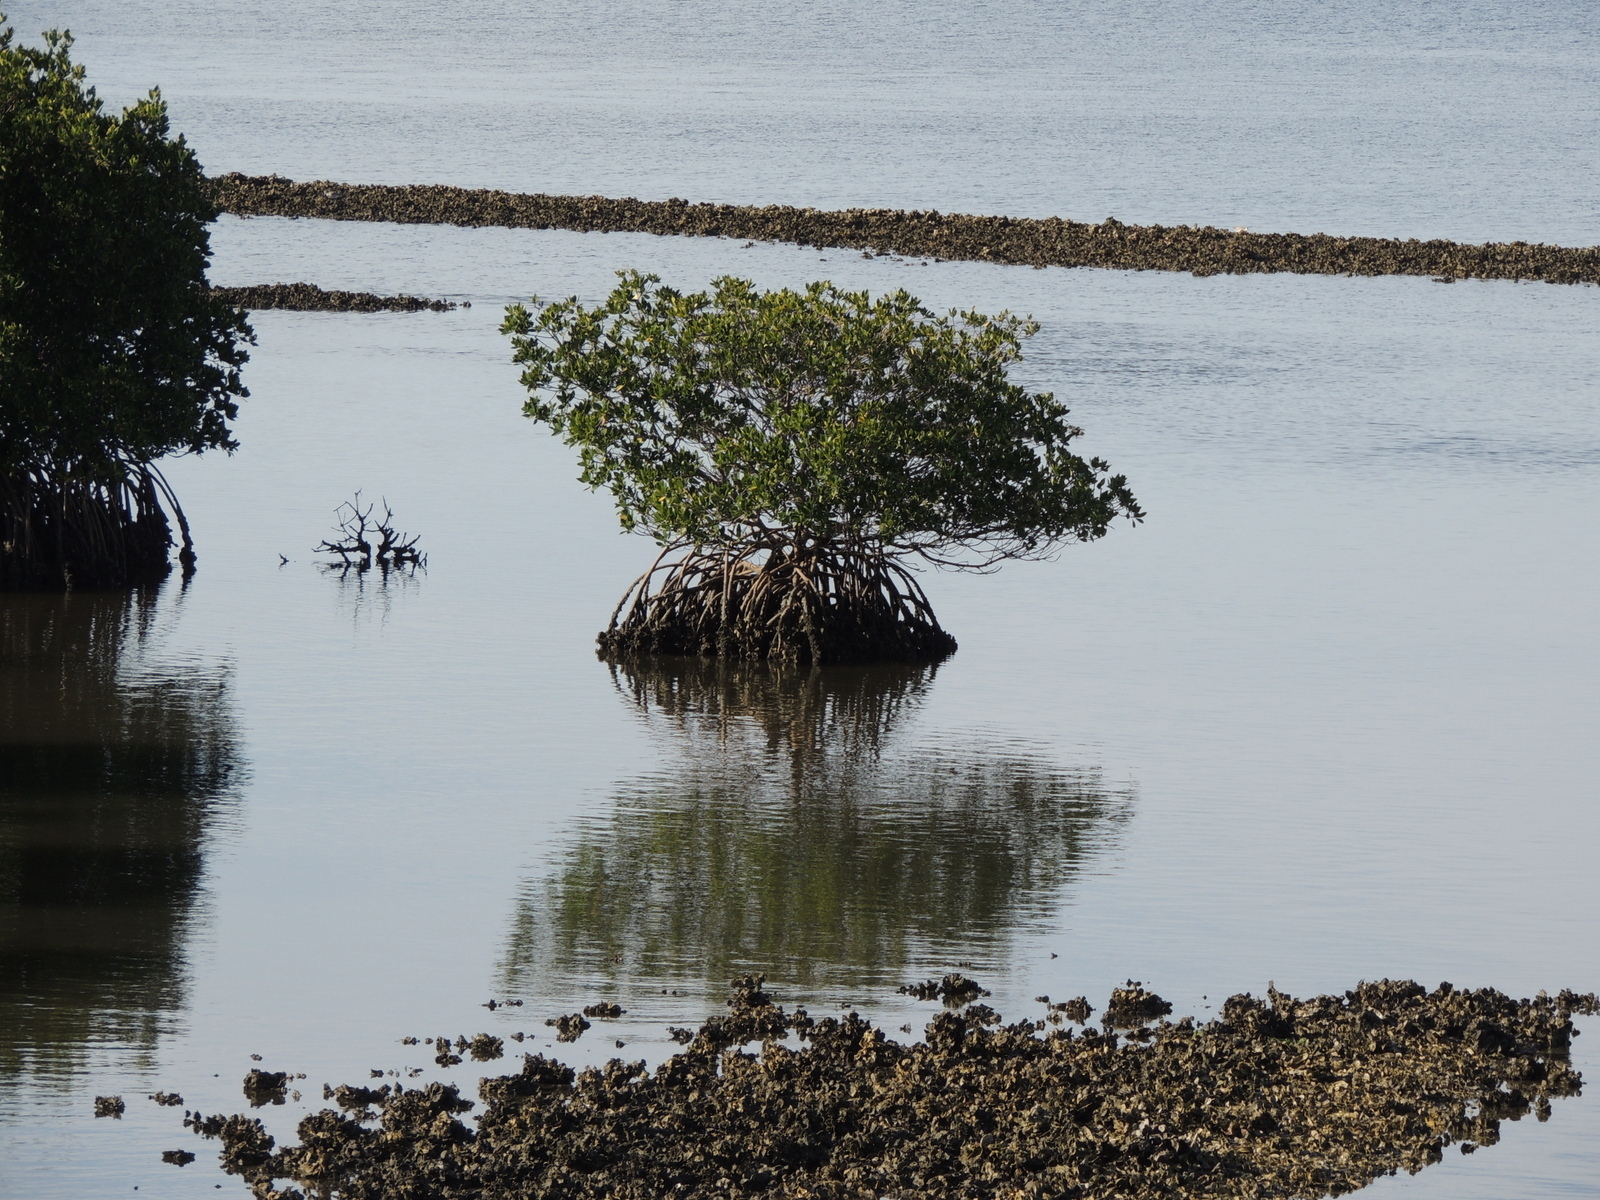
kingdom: Plantae
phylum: Tracheophyta
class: Magnoliopsida
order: Malpighiales
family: Rhizophoraceae
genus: Rhizophora
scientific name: Rhizophora mangle
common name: Red mangrove
